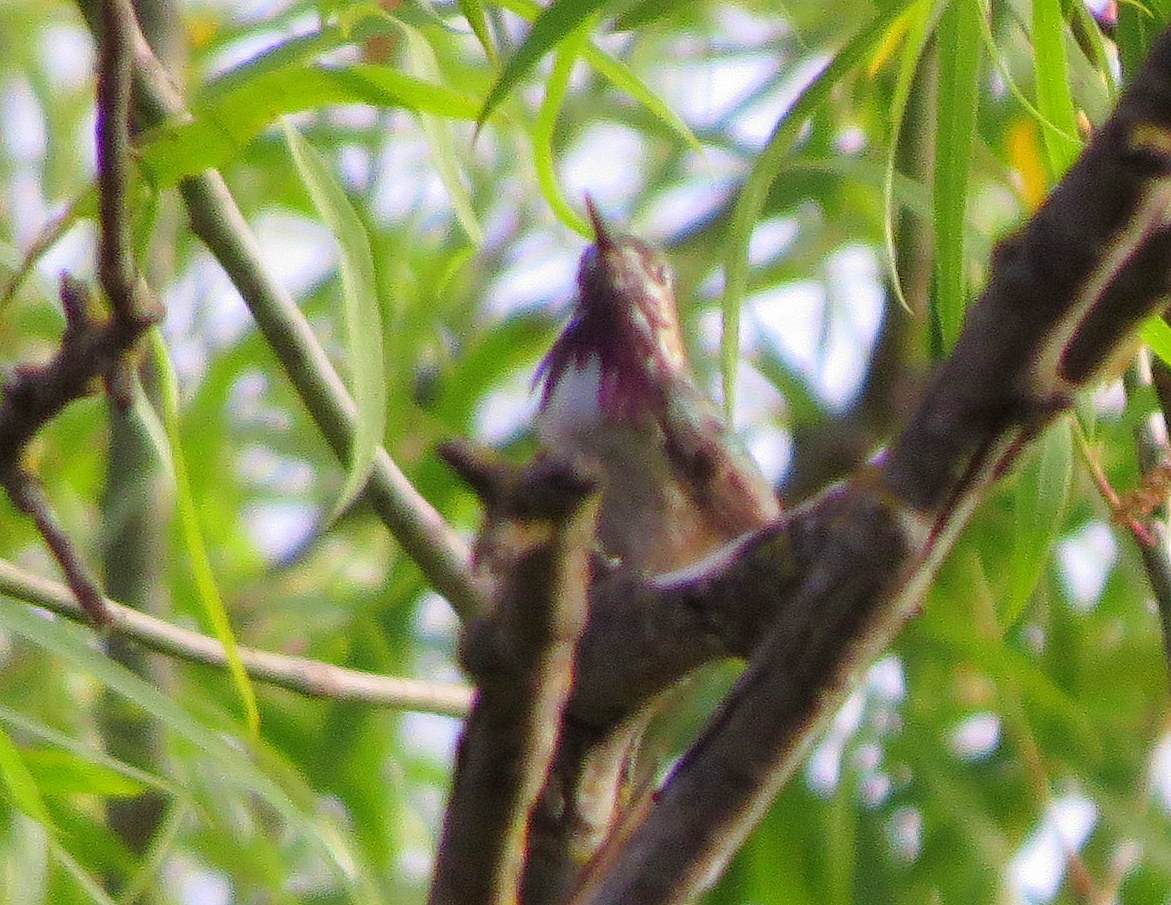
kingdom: Animalia
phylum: Chordata
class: Aves
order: Apodiformes
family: Trochilidae
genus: Selasphorus
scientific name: Selasphorus calliope
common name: Calliope hummingbird
